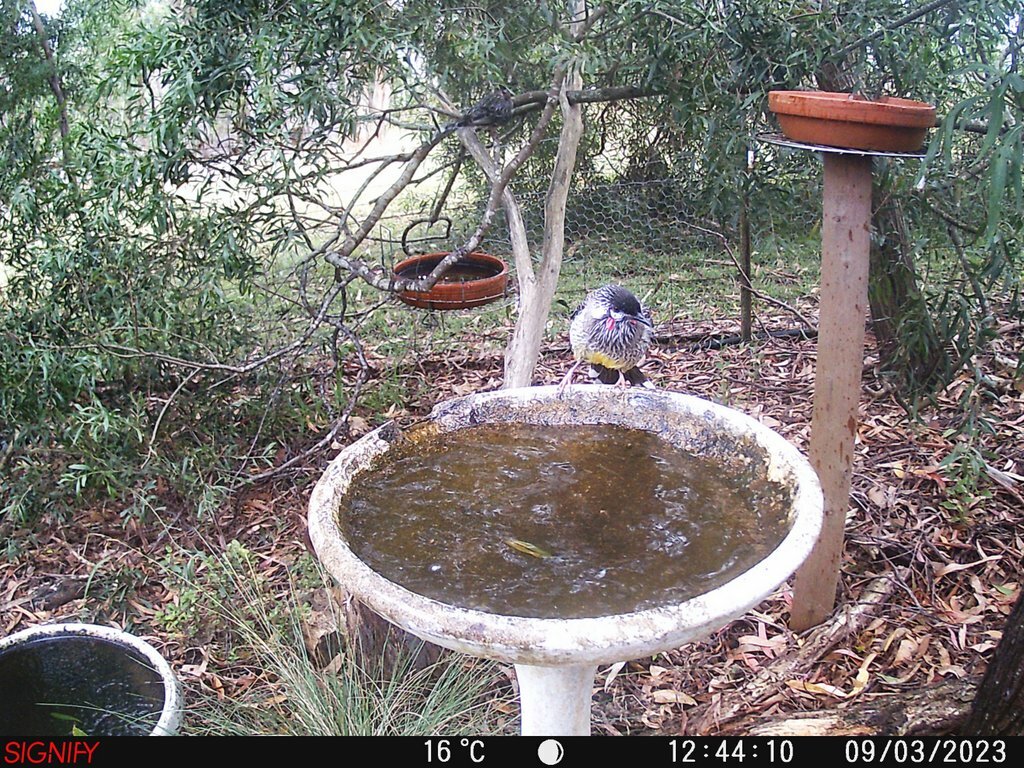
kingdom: Animalia
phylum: Chordata
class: Aves
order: Passeriformes
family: Meliphagidae
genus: Anthochaera
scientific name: Anthochaera carunculata
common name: Red wattlebird
